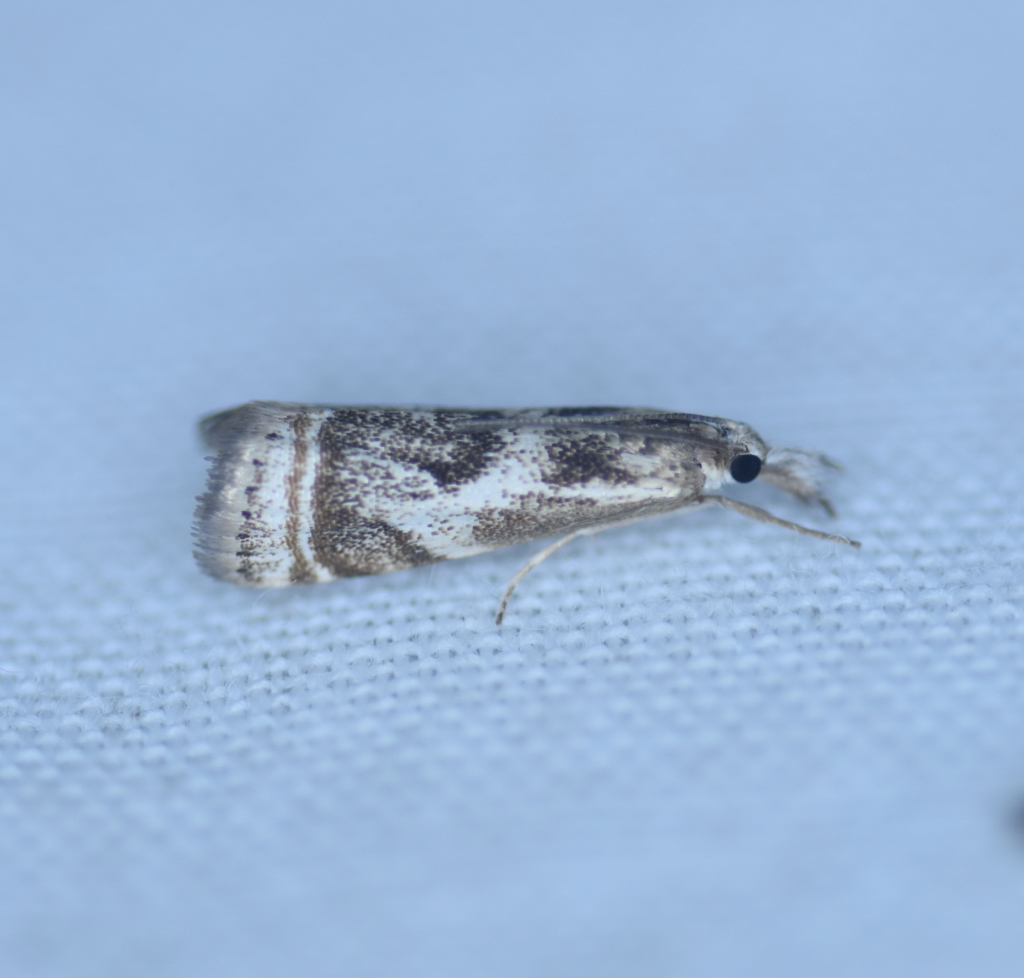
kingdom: Animalia
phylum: Arthropoda
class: Insecta
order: Lepidoptera
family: Crambidae
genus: Microcrambus
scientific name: Microcrambus elegans
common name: Elegant grass-veneer
